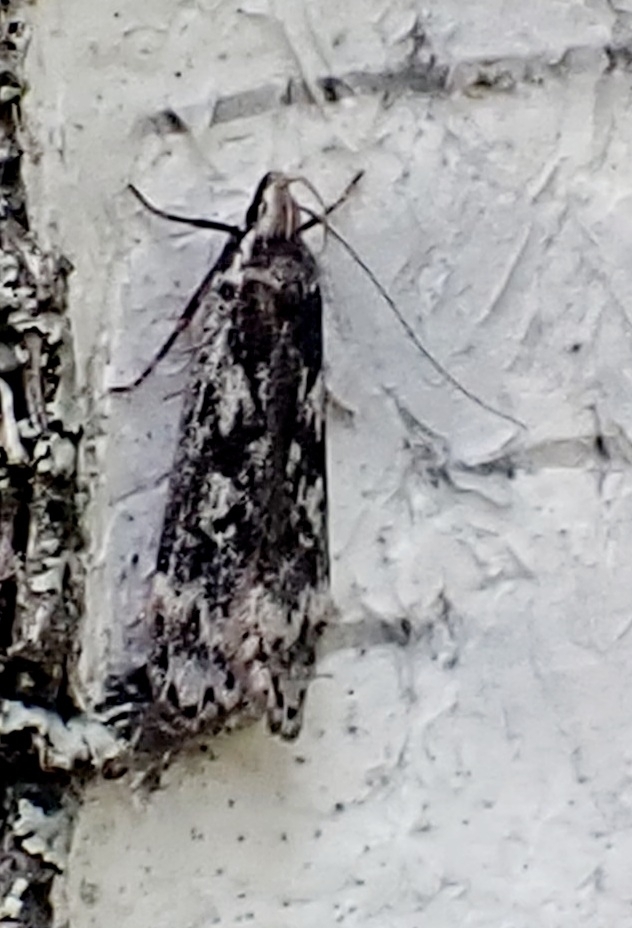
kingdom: Animalia
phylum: Arthropoda
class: Insecta
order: Lepidoptera
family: Gelechiidae
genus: Anacampsis
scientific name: Anacampsis blattariella
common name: Birch sober
